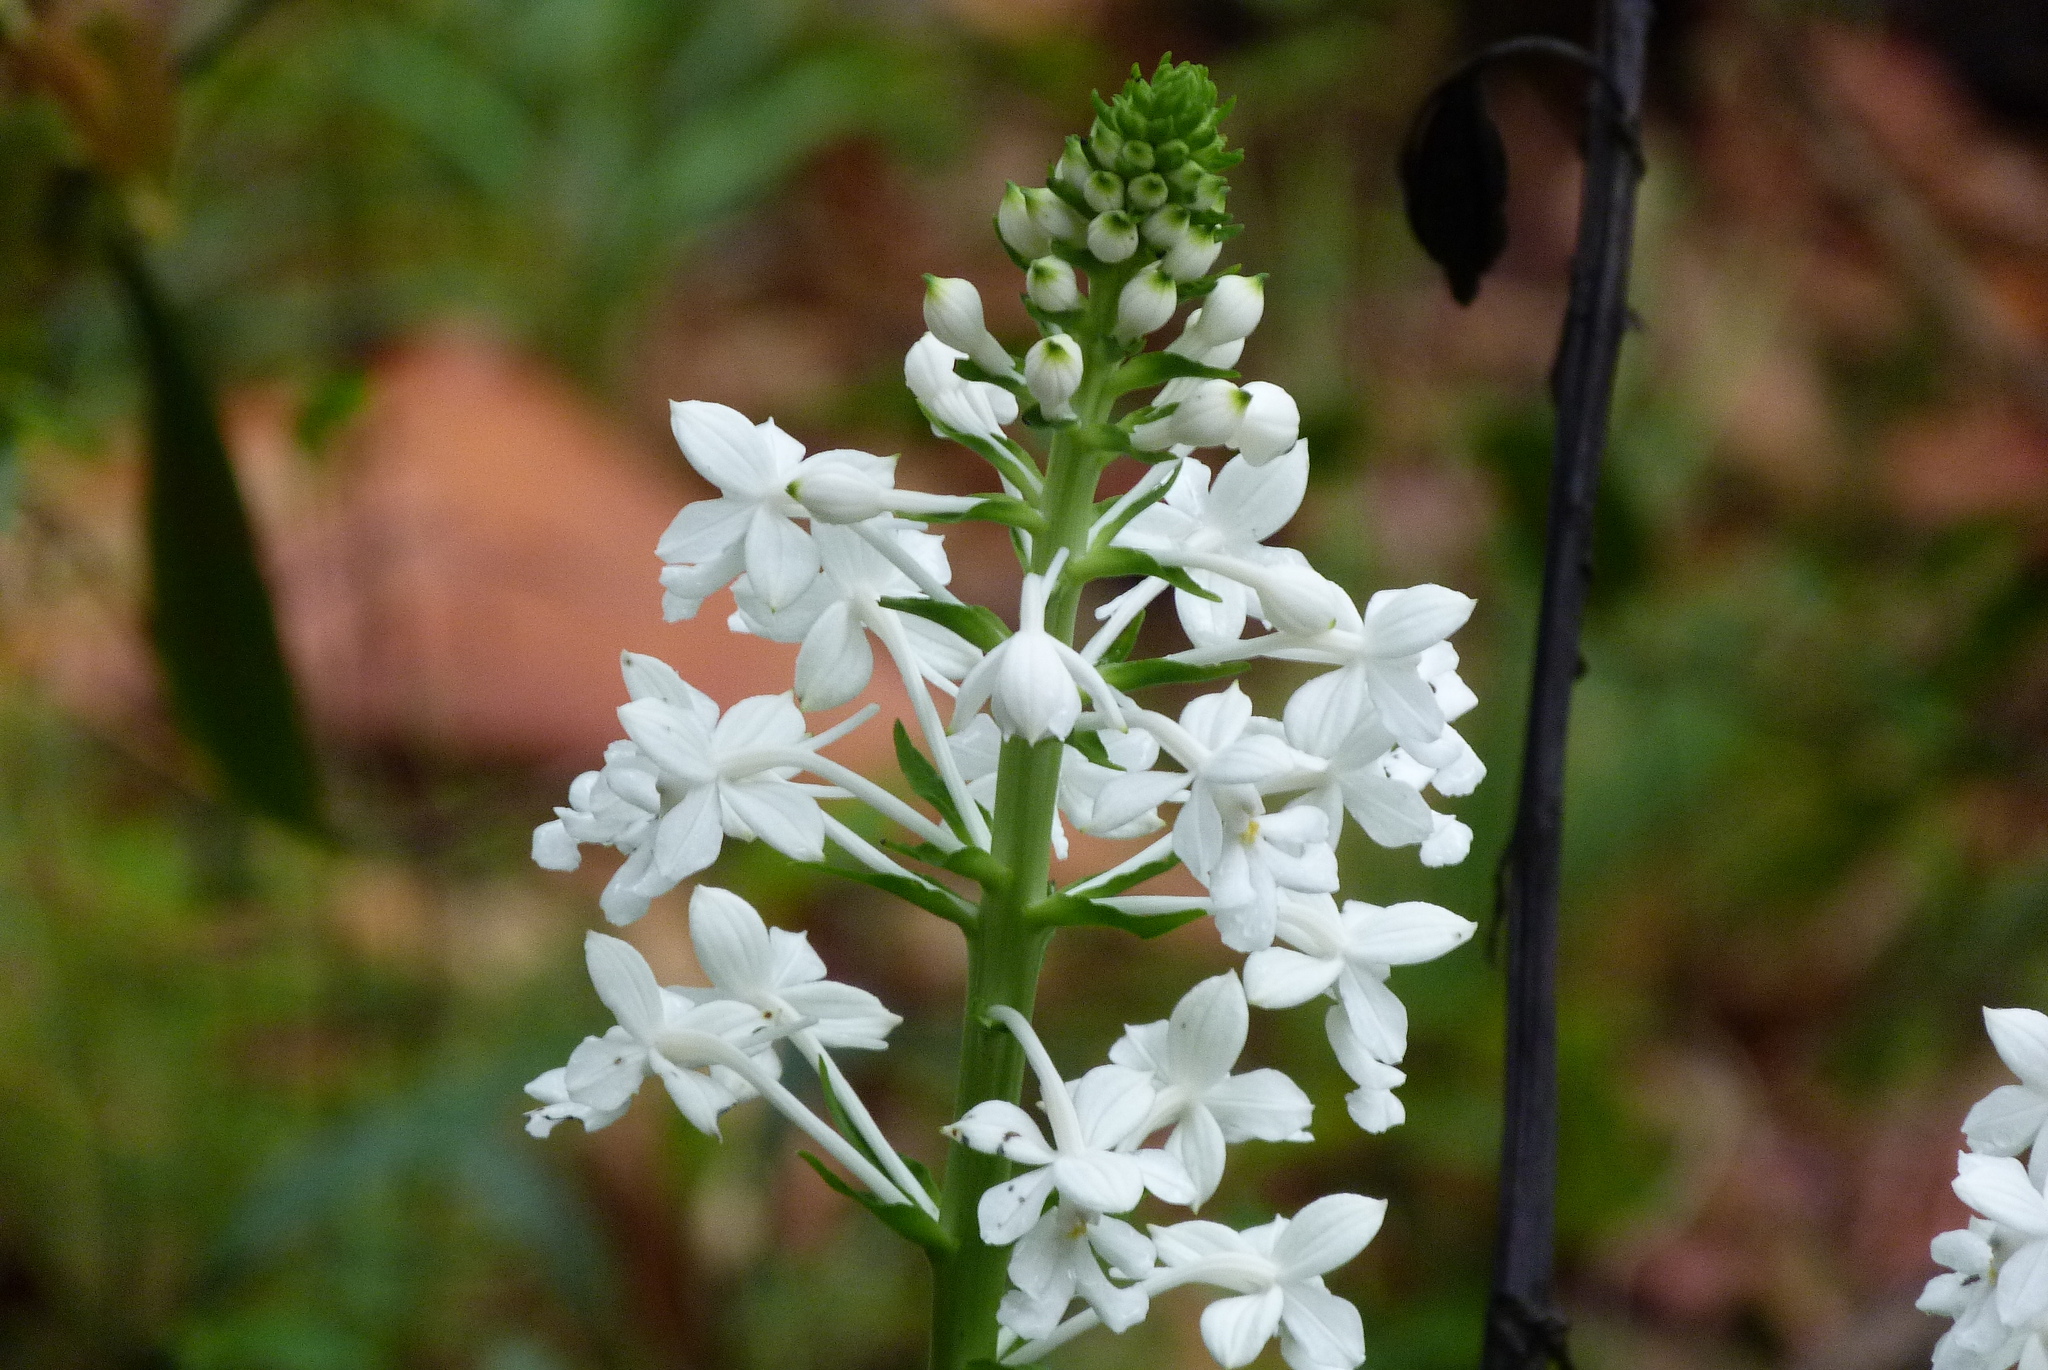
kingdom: Plantae
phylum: Tracheophyta
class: Liliopsida
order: Asparagales
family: Orchidaceae
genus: Calanthe
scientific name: Calanthe triplicata
